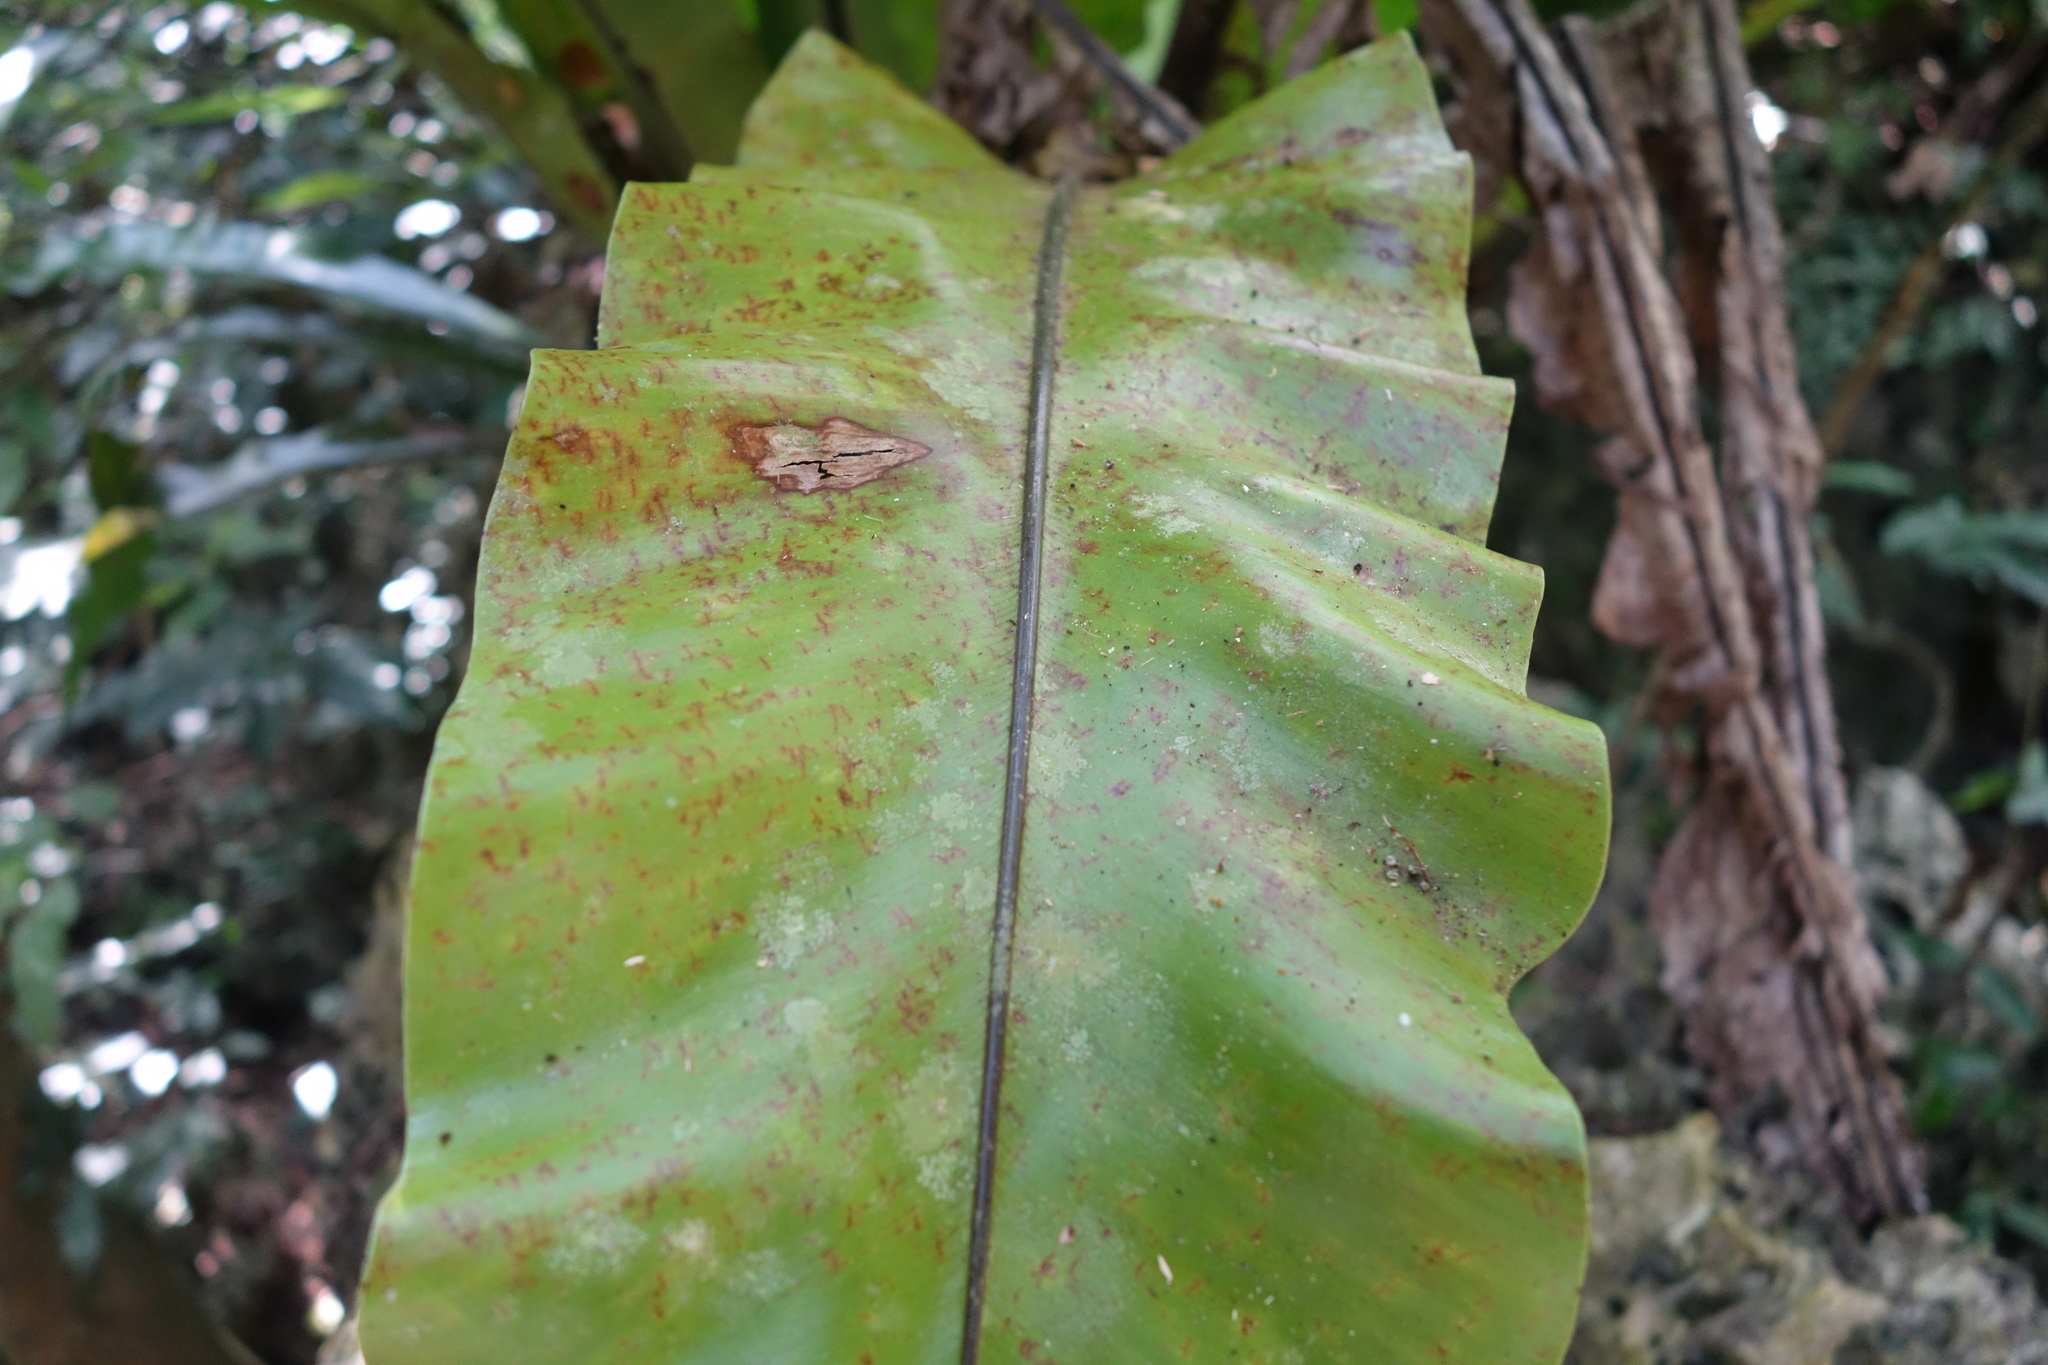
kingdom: Plantae
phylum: Tracheophyta
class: Polypodiopsida
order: Polypodiales
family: Aspleniaceae
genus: Asplenium
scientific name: Asplenium nidus
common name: Bird's-nest fern
